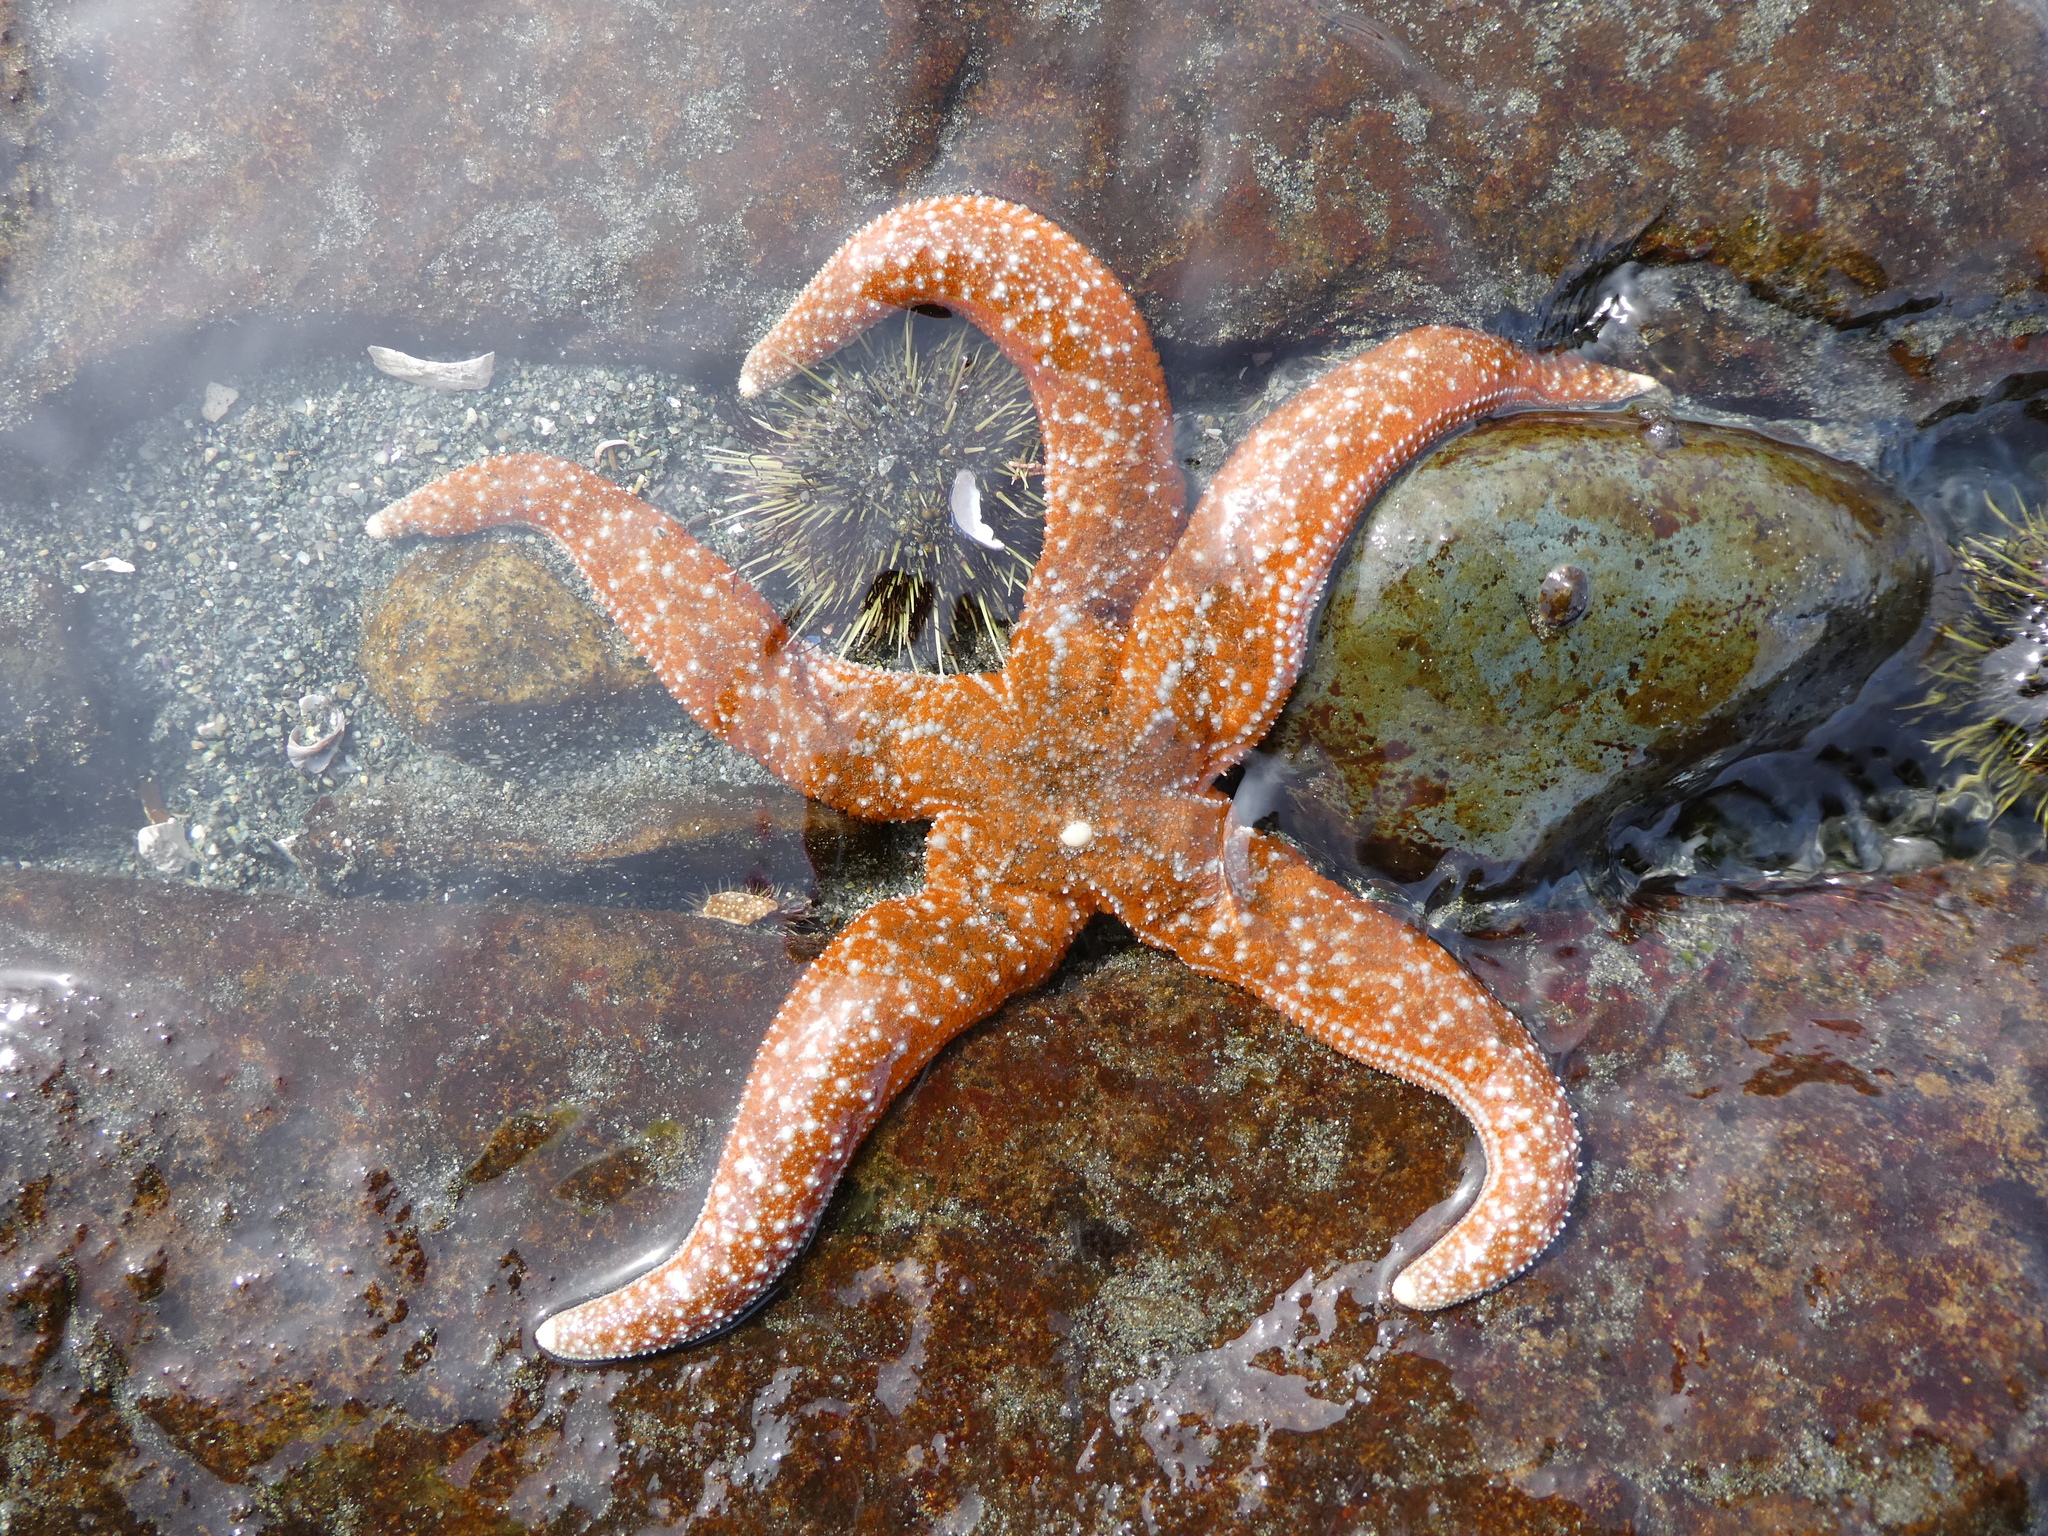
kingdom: Animalia
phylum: Echinodermata
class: Asteroidea
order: Forcipulatida
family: Asteriidae
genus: Evasterias
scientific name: Evasterias troschelii
